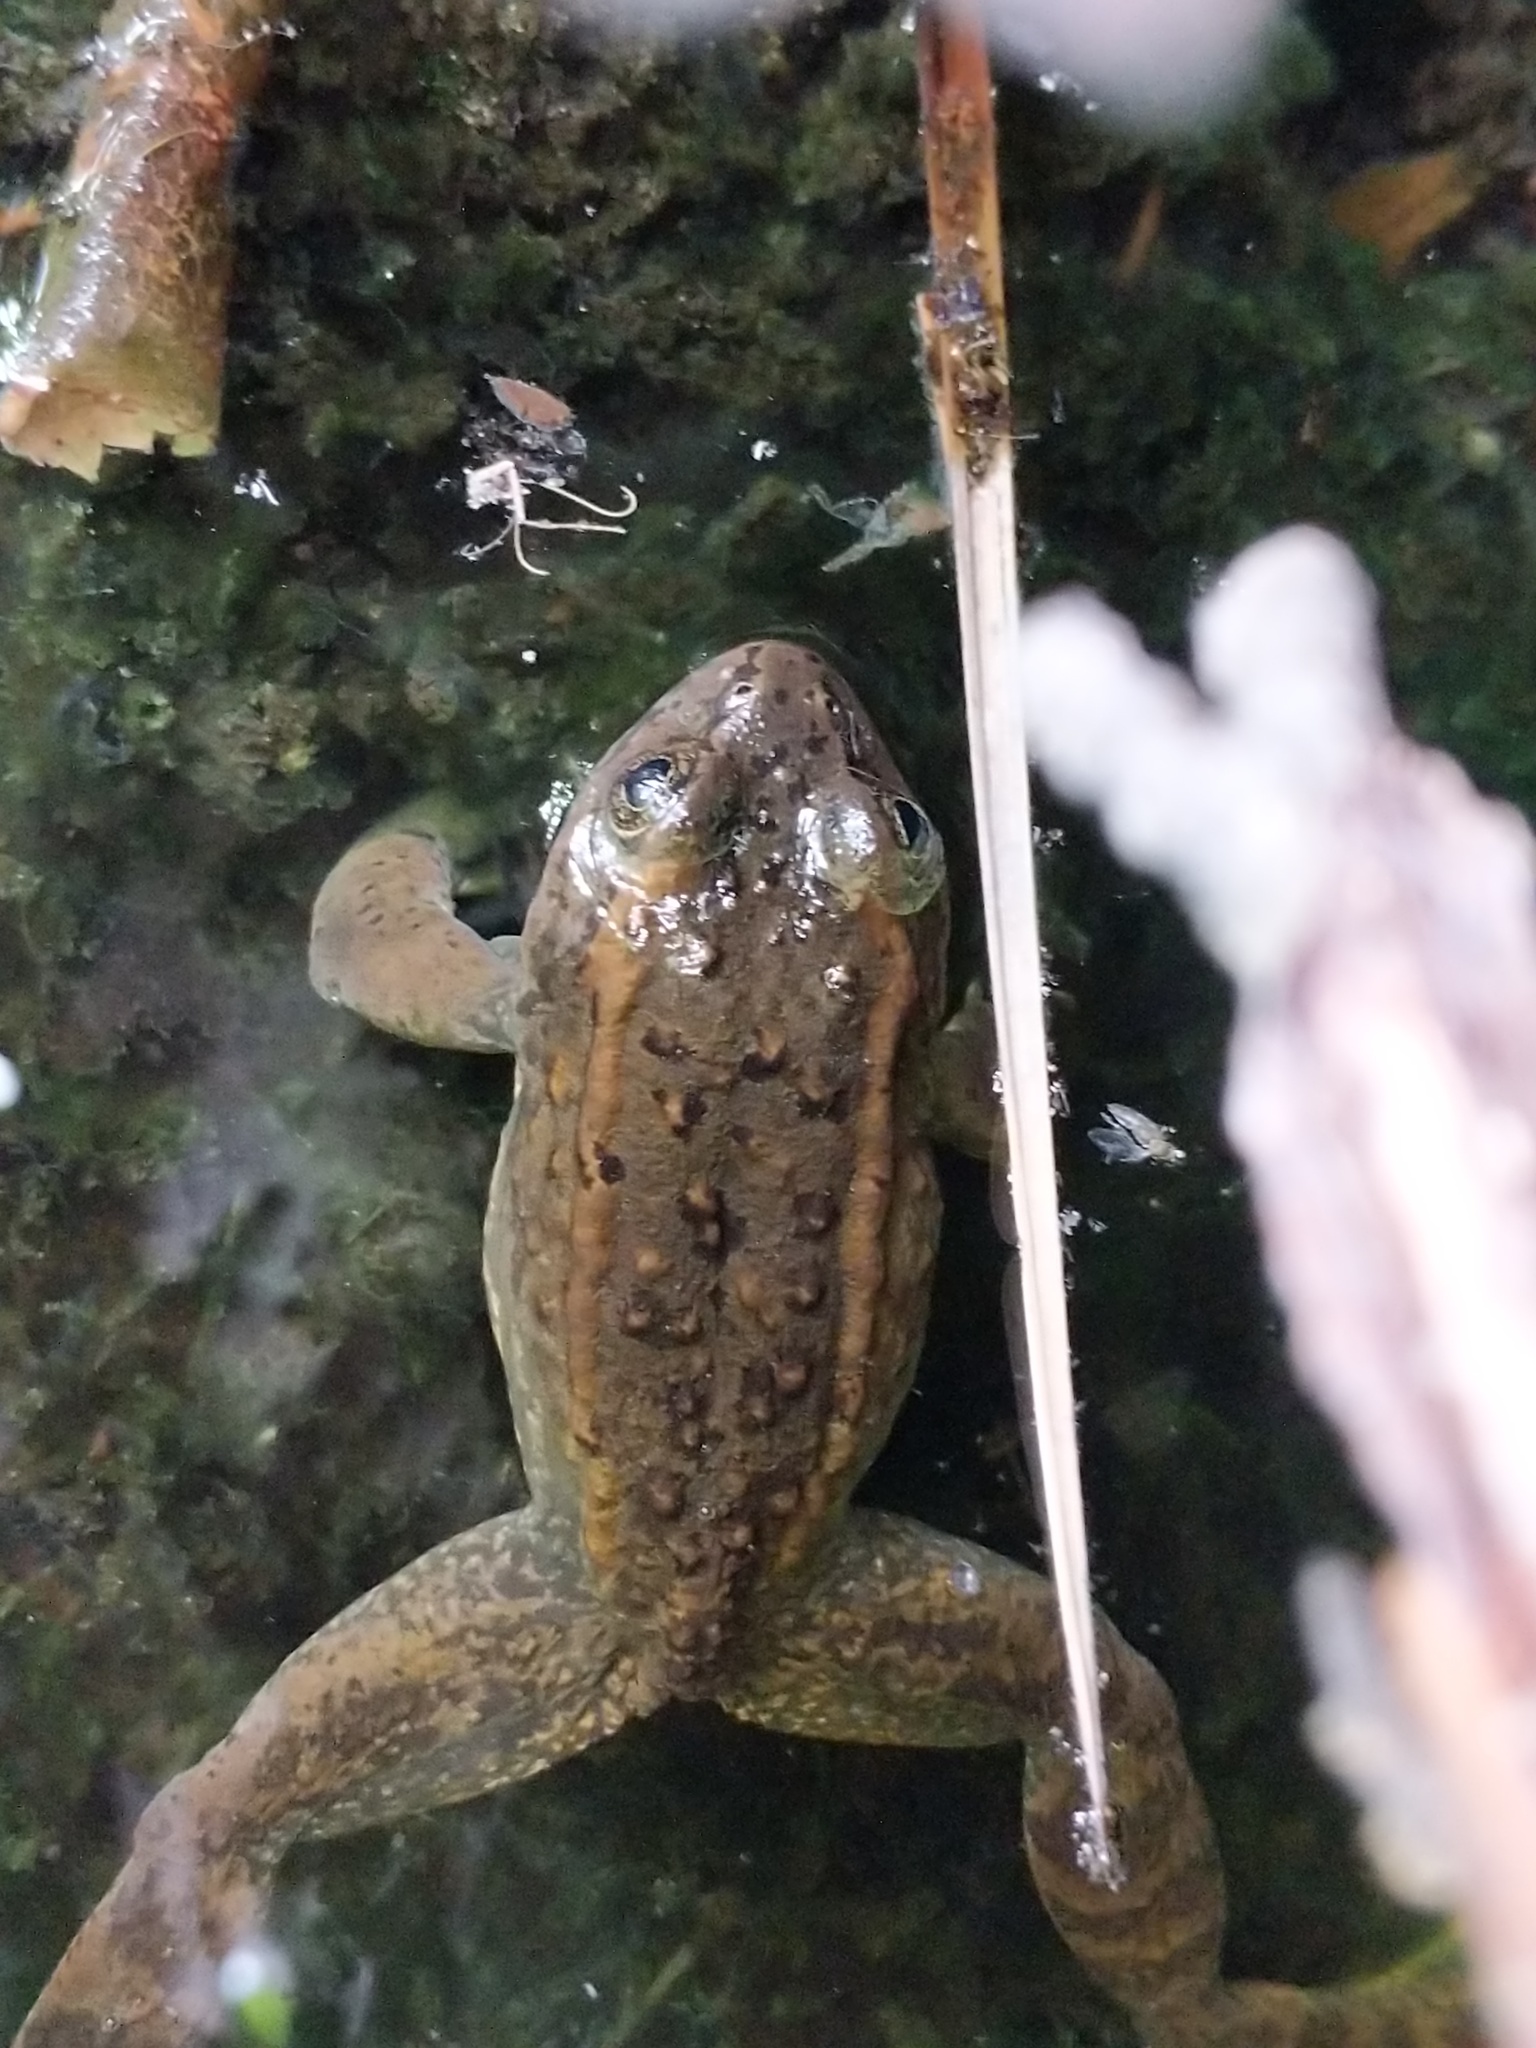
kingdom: Animalia
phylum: Chordata
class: Amphibia
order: Anura
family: Ranidae
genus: Rana
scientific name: Rana luteiventris
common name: Columbia spotted frog
